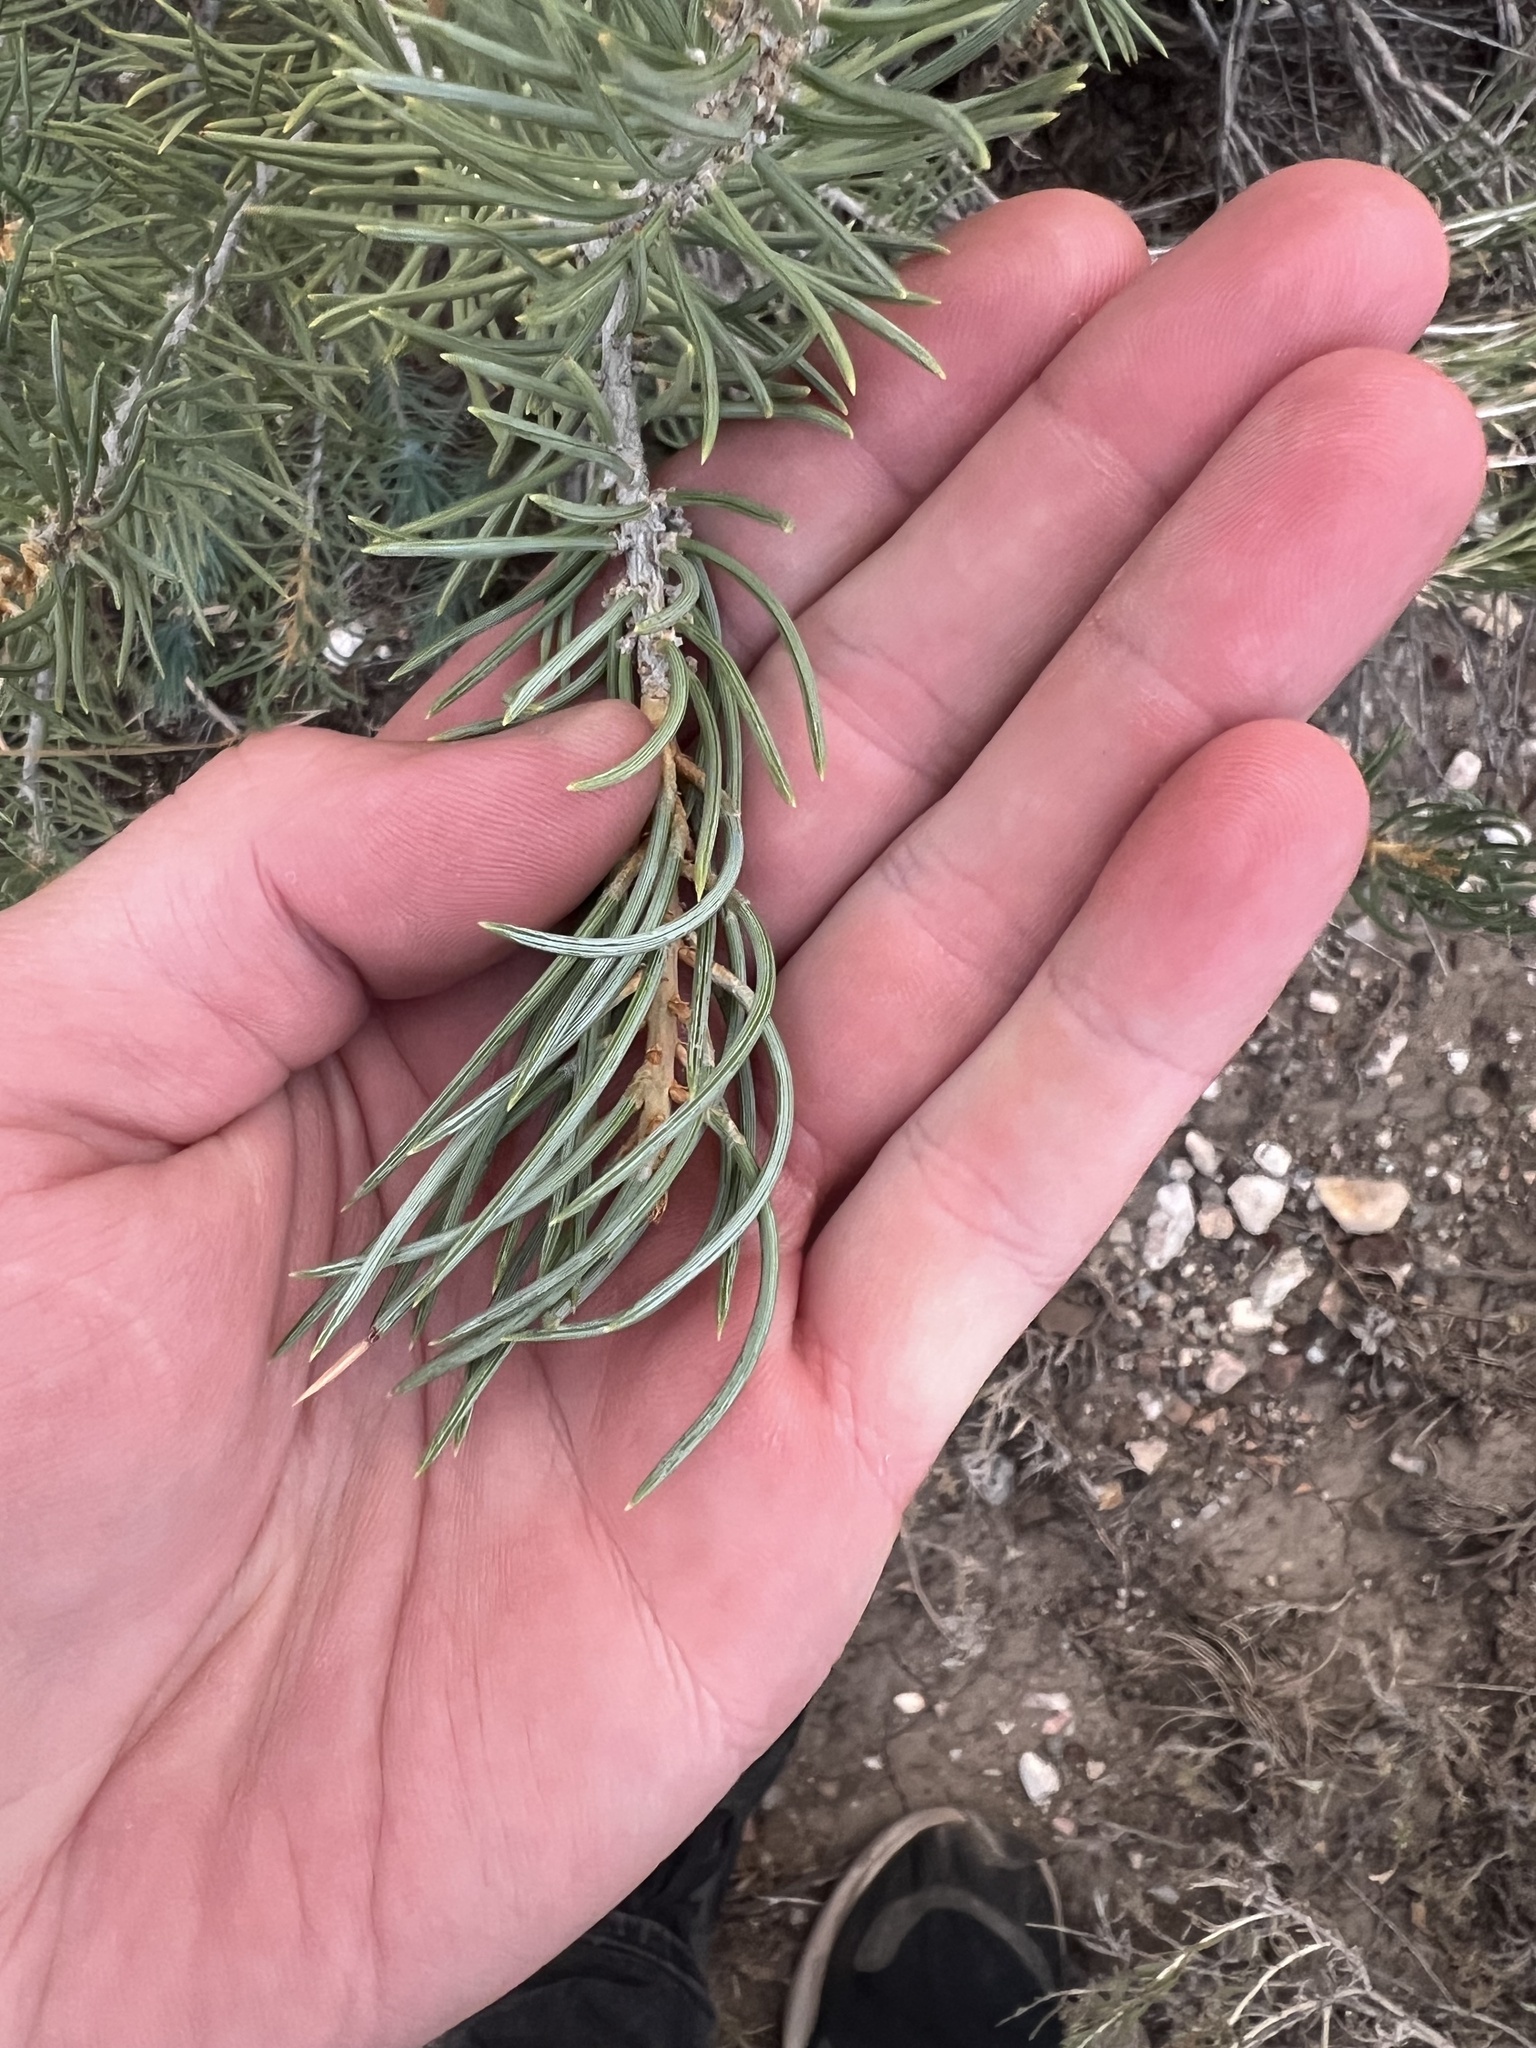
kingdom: Plantae
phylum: Tracheophyta
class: Pinopsida
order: Pinales
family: Pinaceae
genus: Pinus
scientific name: Pinus monophylla
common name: One-leaved nut pine
